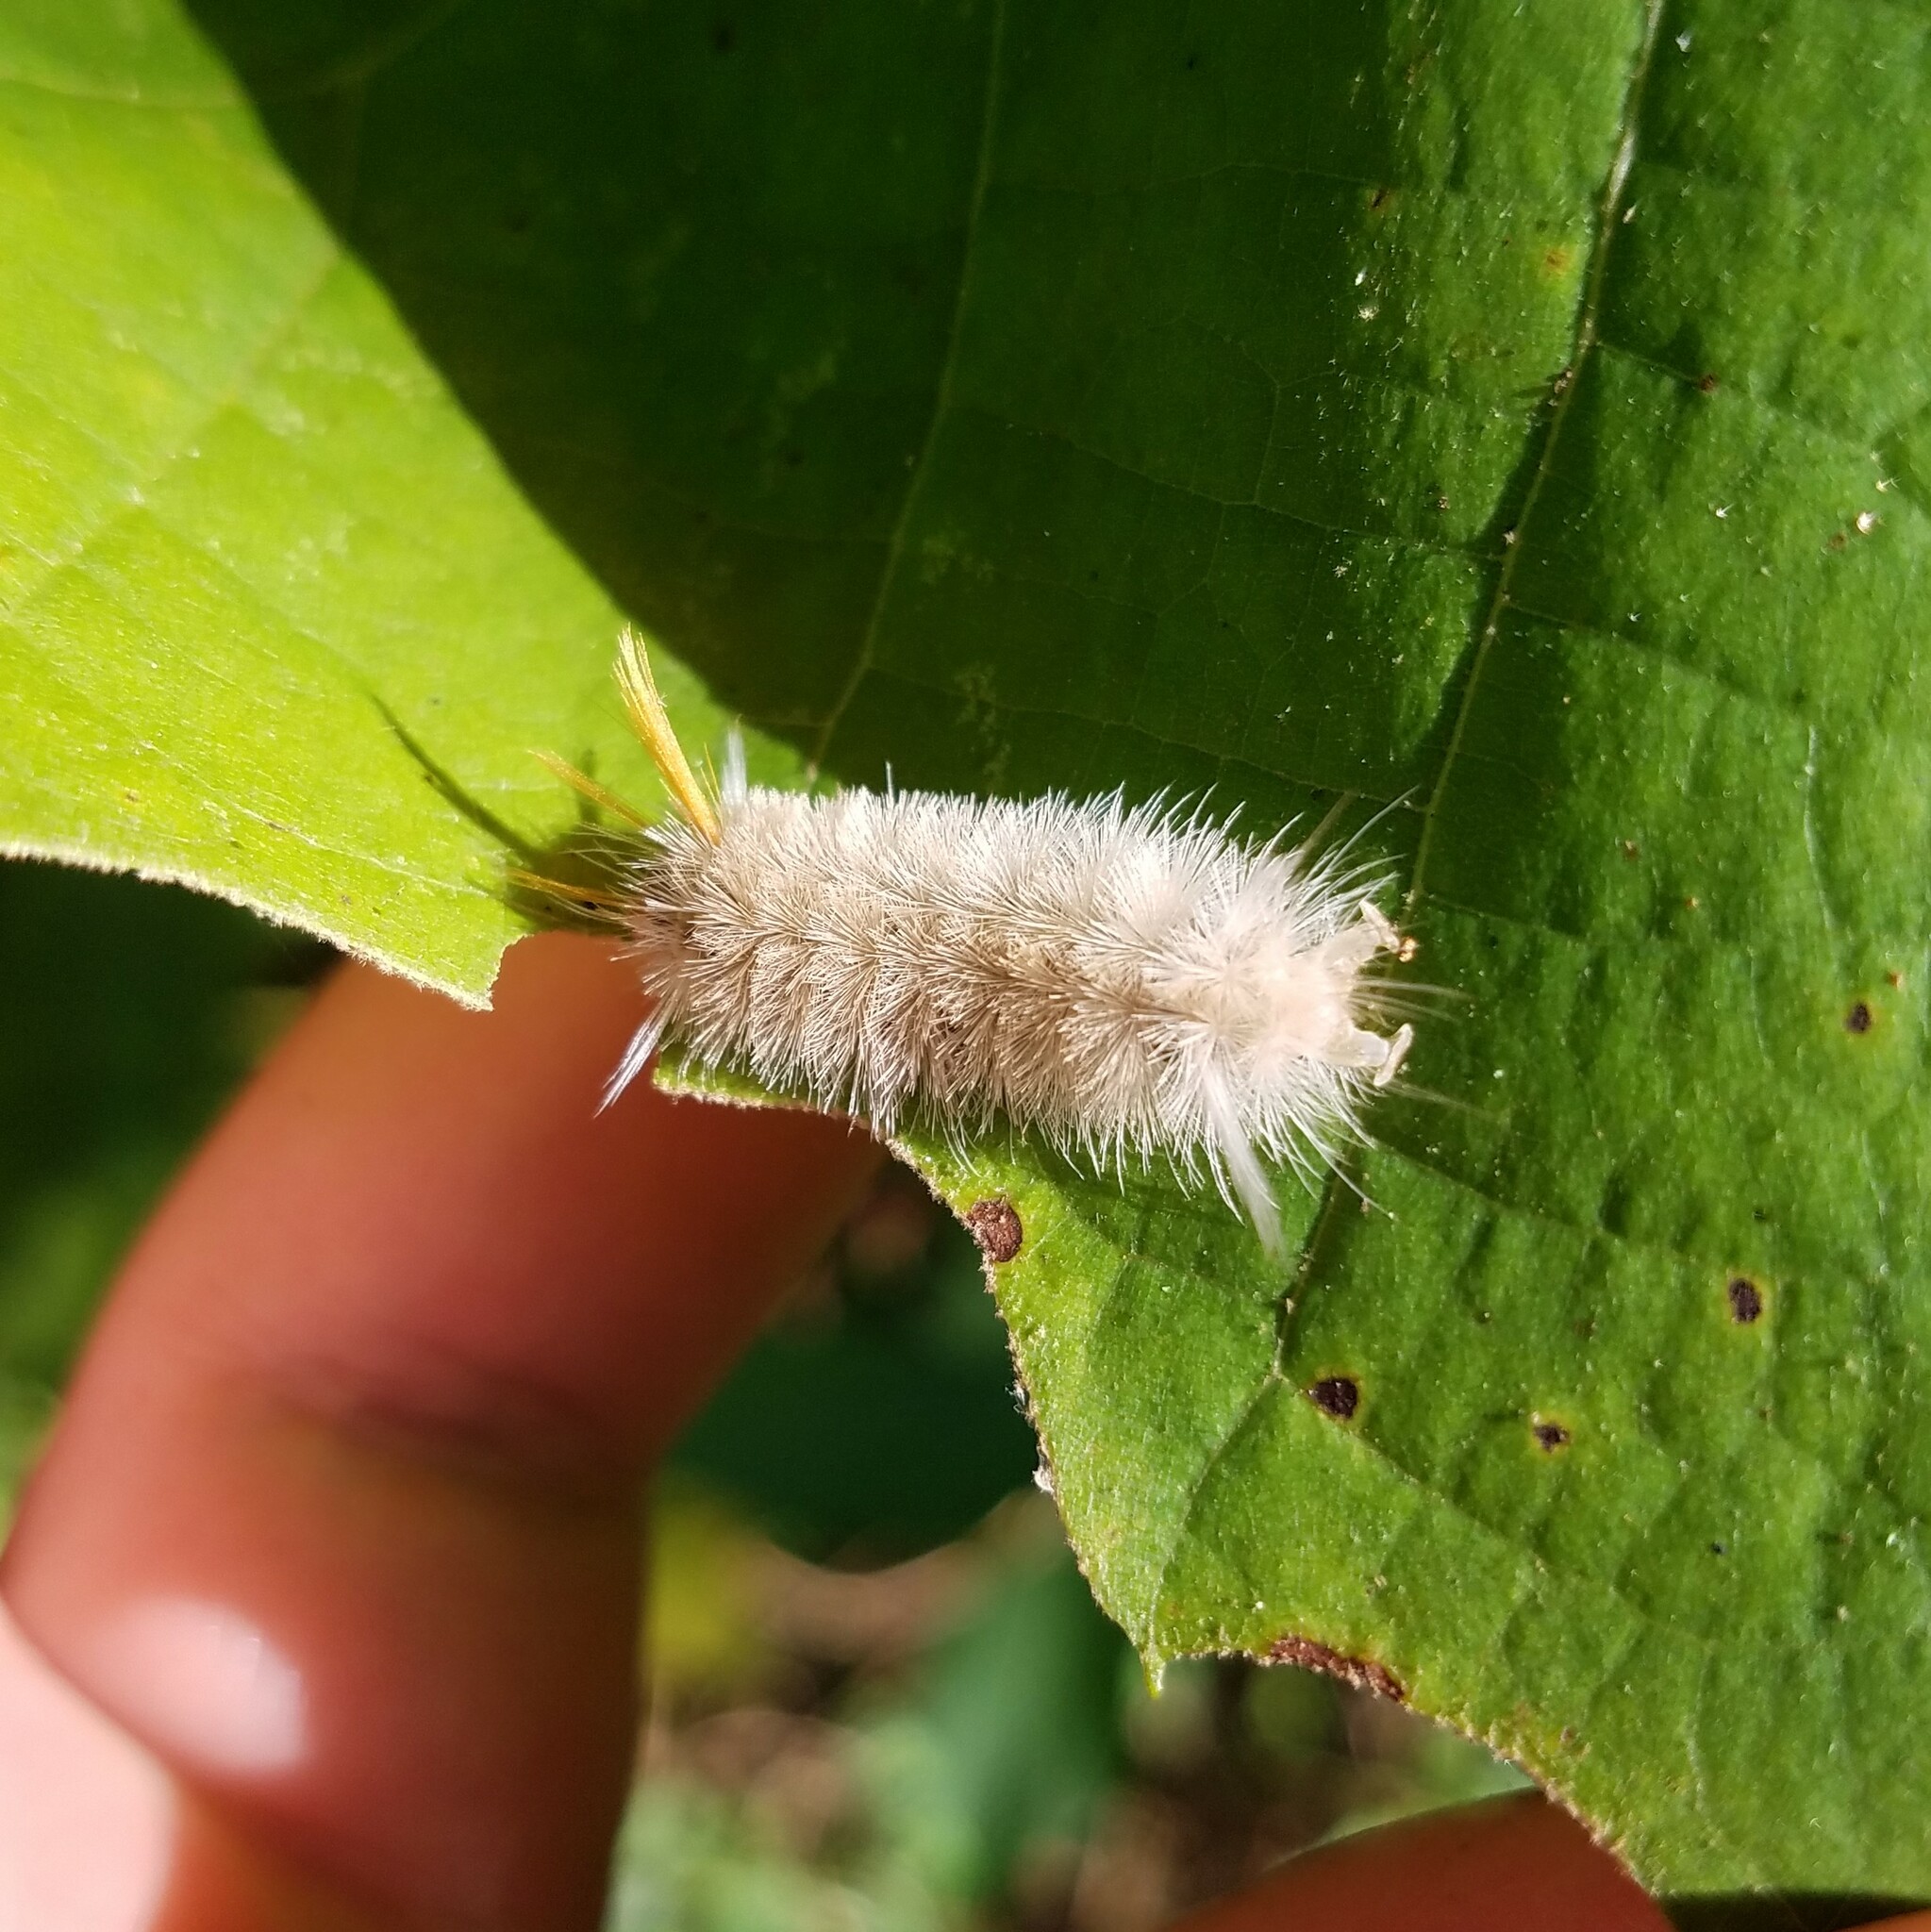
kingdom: Animalia
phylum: Arthropoda
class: Insecta
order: Lepidoptera
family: Erebidae
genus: Halysidota
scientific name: Halysidota harrisii
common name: Sycamore tussock moth
